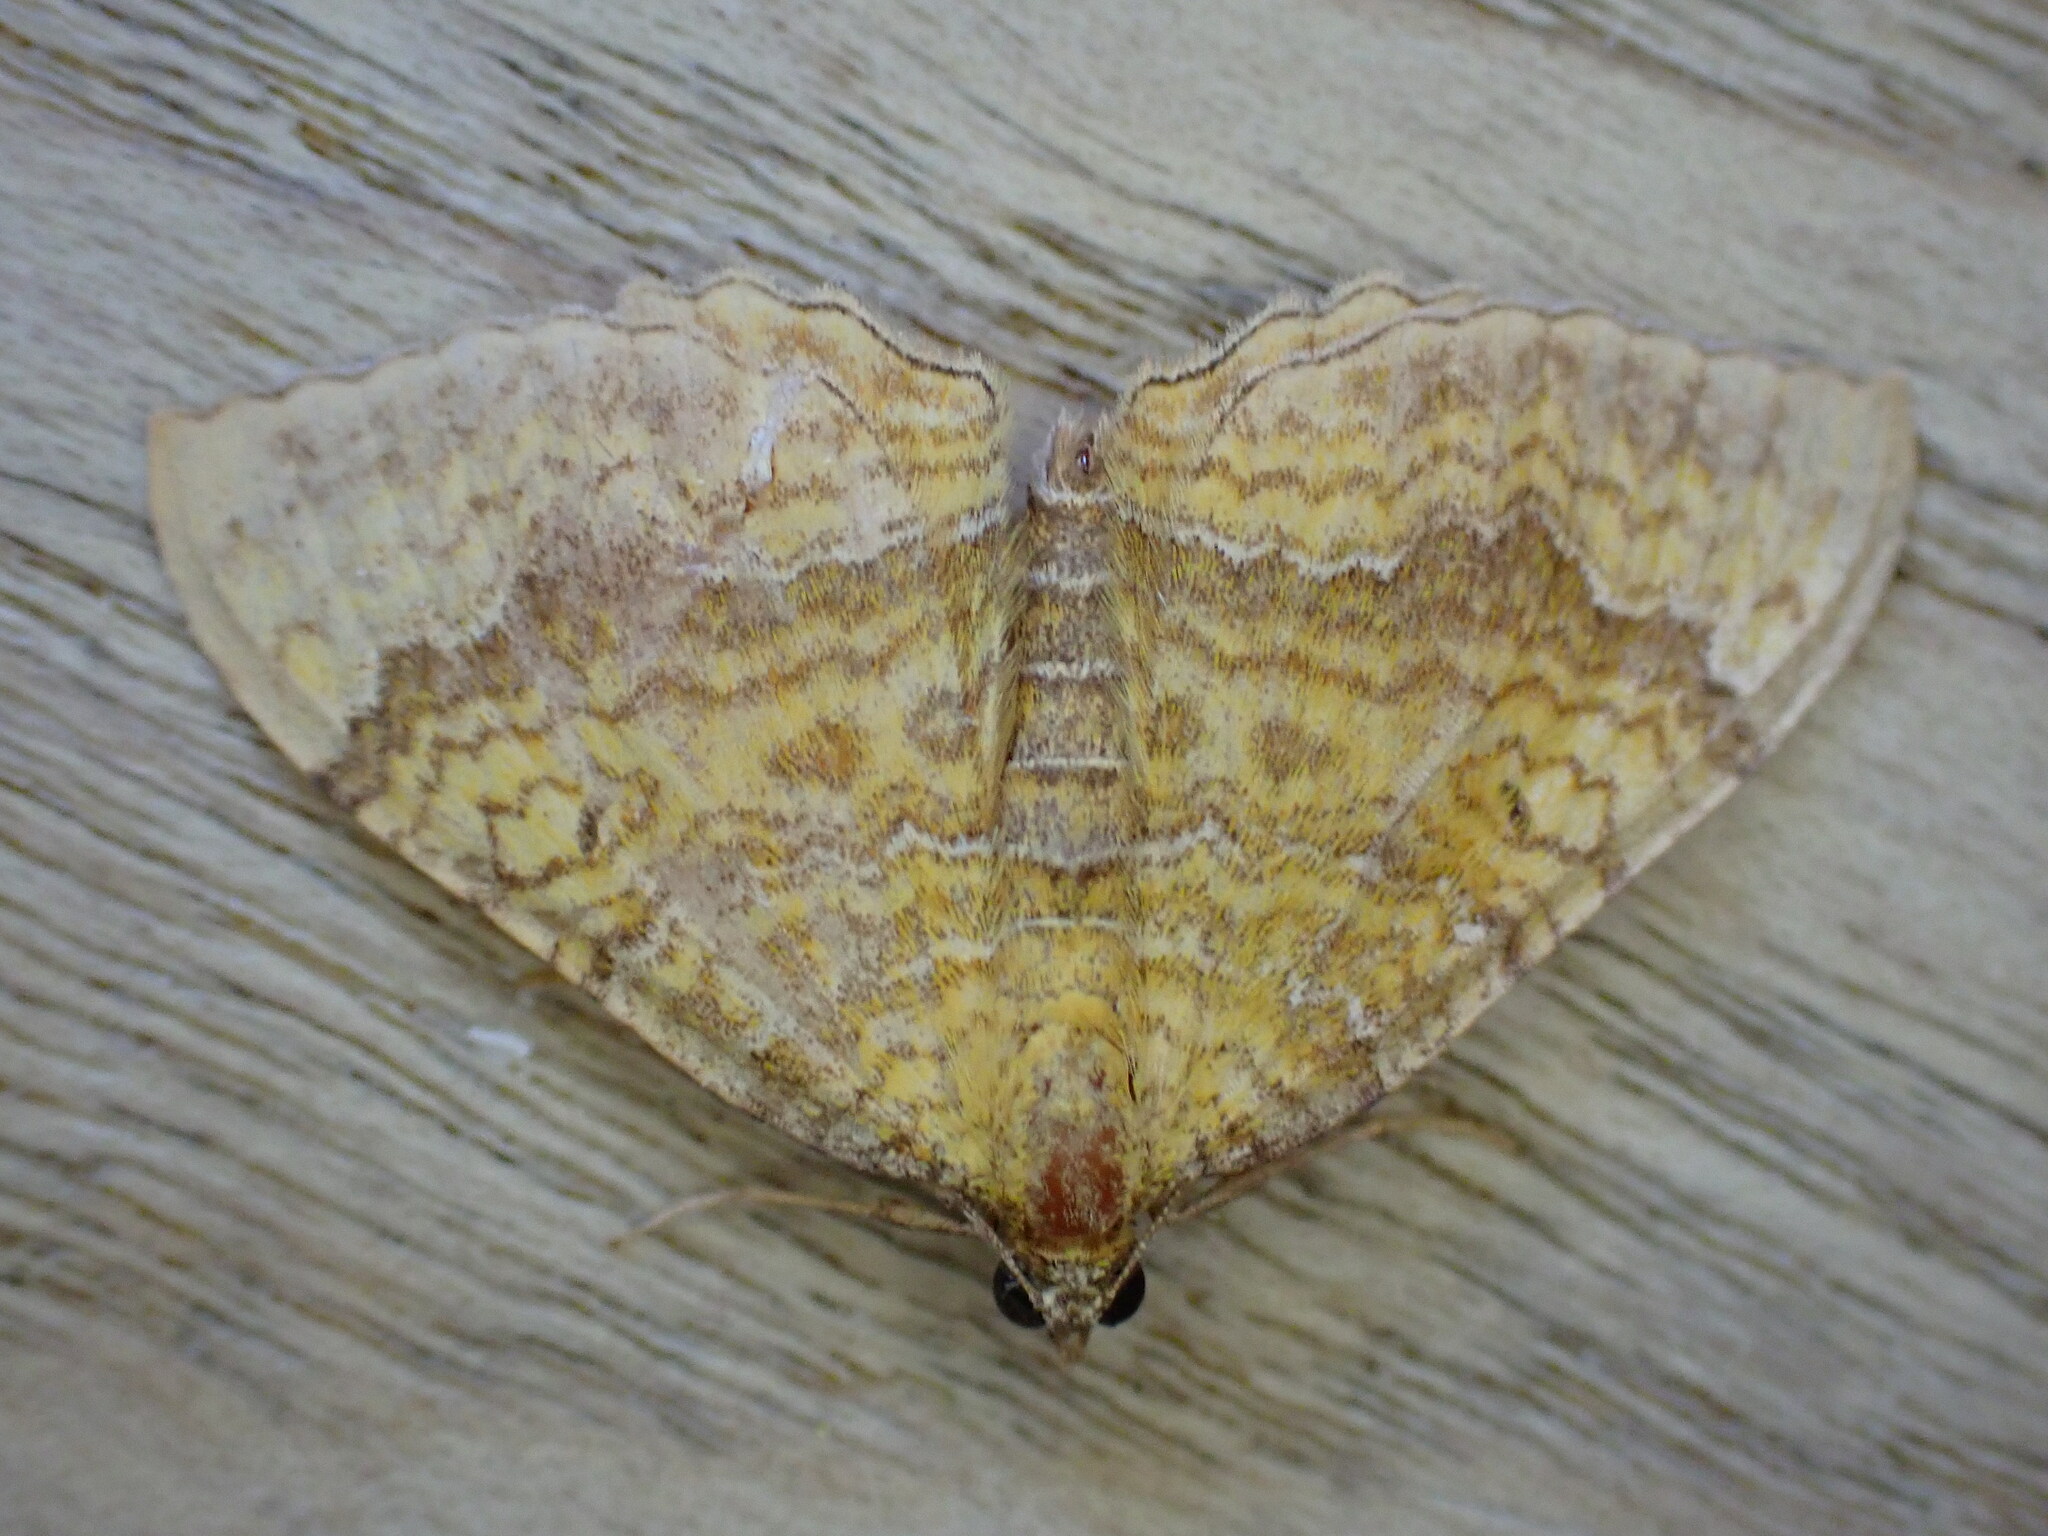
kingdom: Animalia
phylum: Arthropoda
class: Insecta
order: Lepidoptera
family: Geometridae
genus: Camptogramma
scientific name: Camptogramma bilineata
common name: Yellow shell
